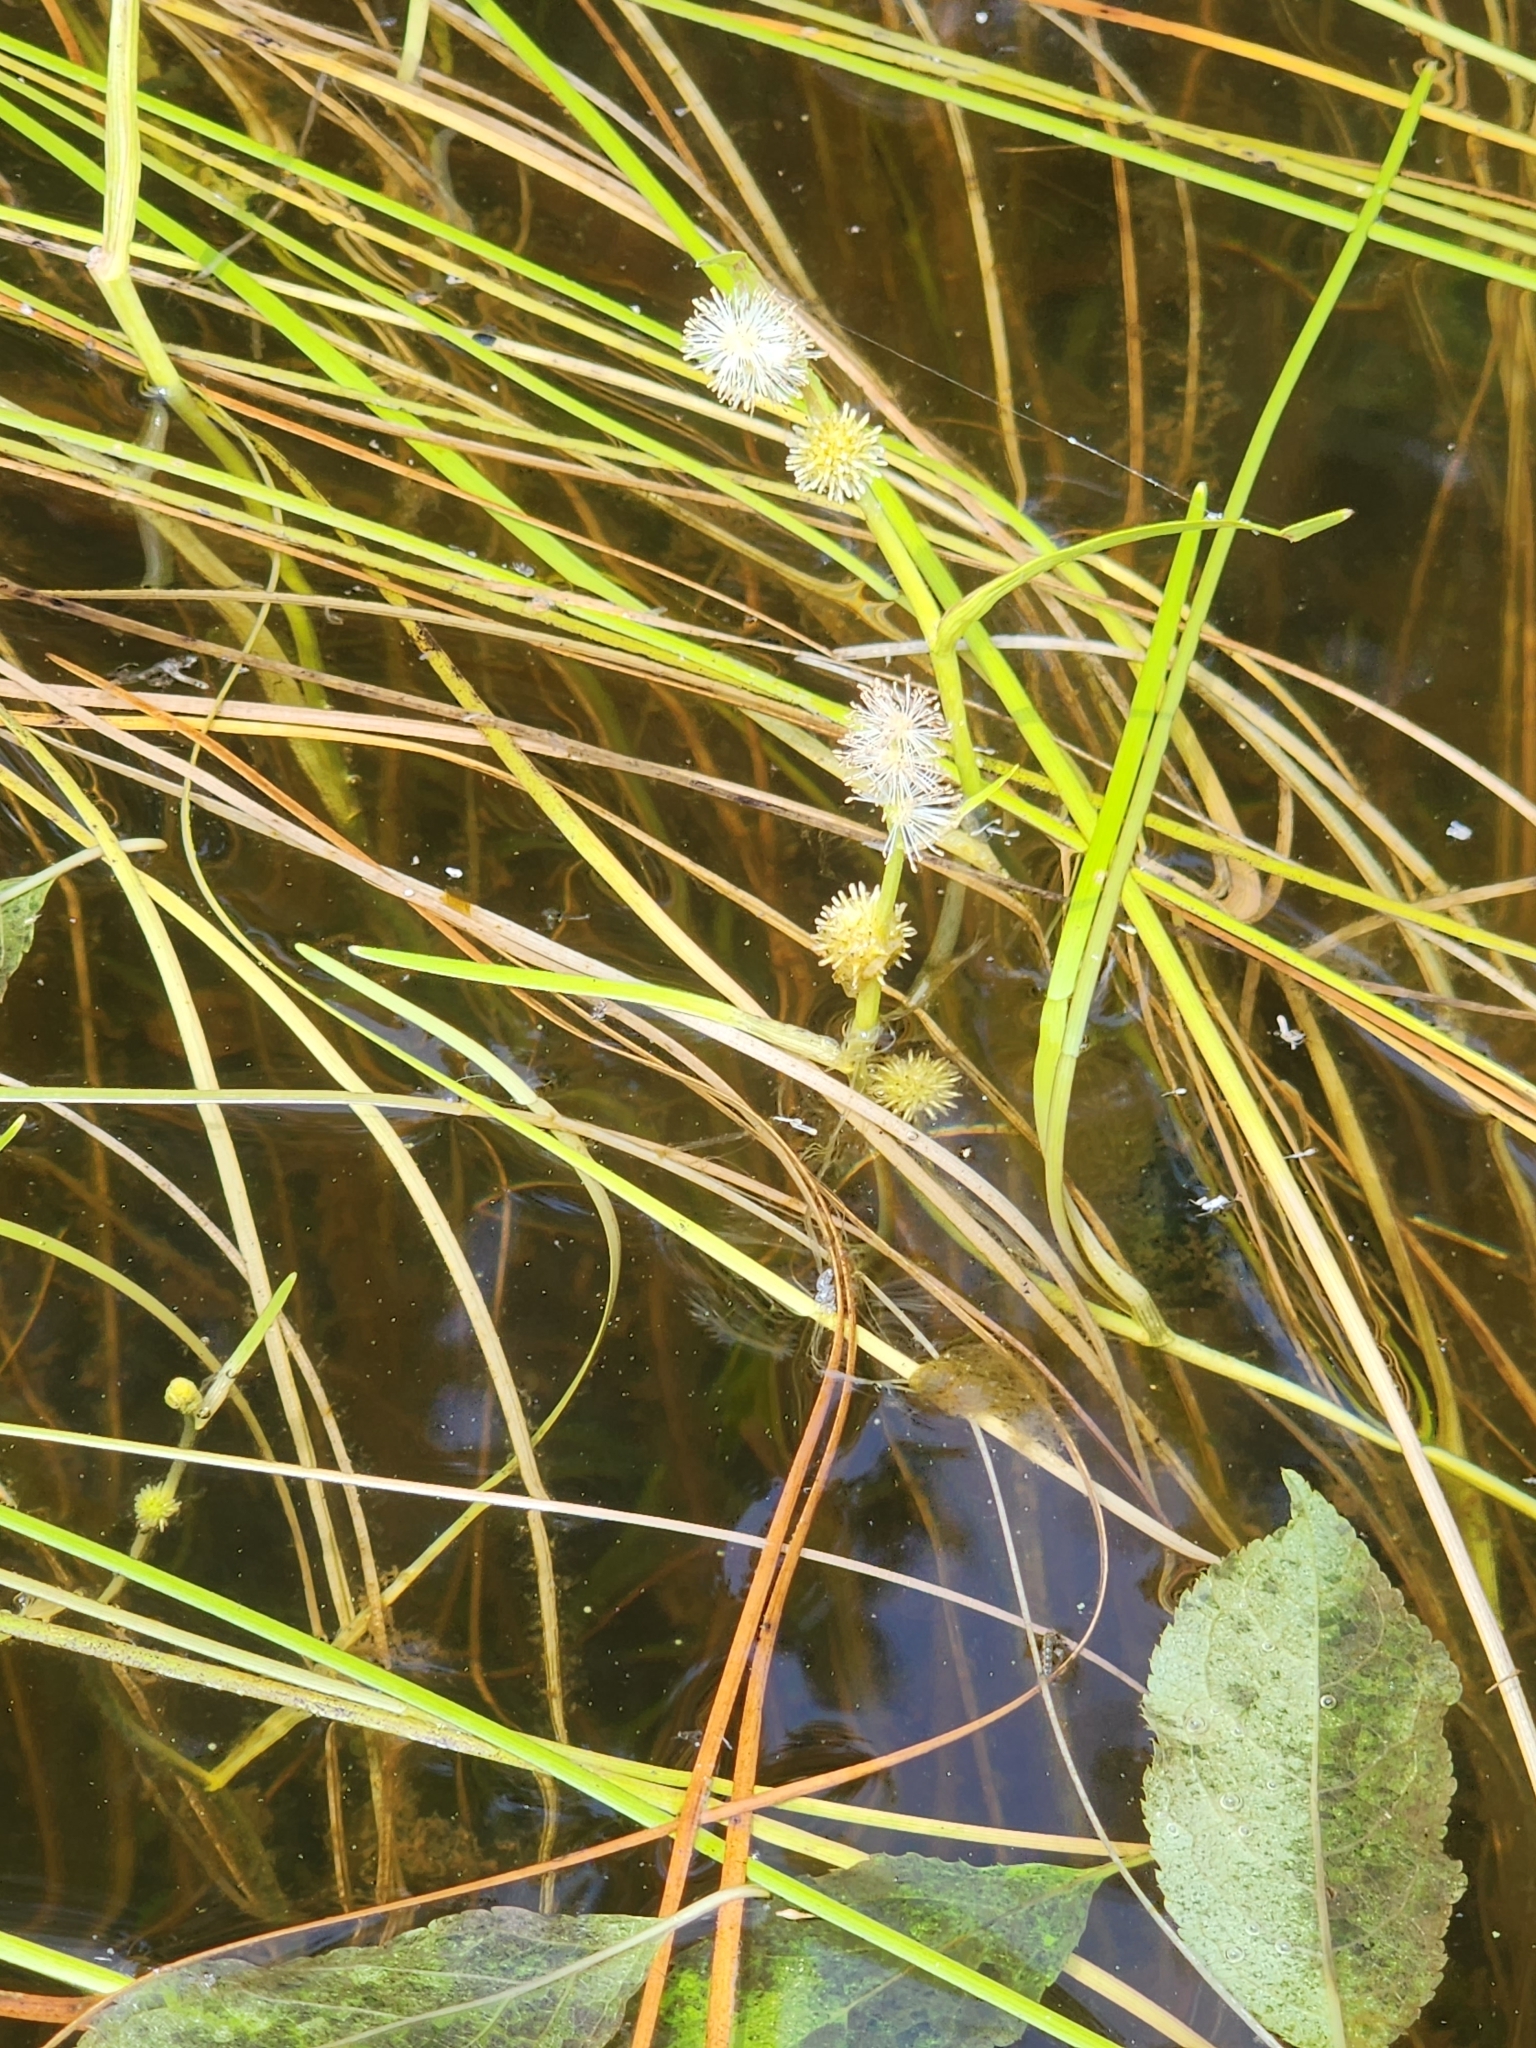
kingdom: Plantae
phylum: Tracheophyta
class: Liliopsida
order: Poales
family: Typhaceae
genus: Sparganium
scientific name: Sparganium angustifolium
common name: Floating bur-reed
